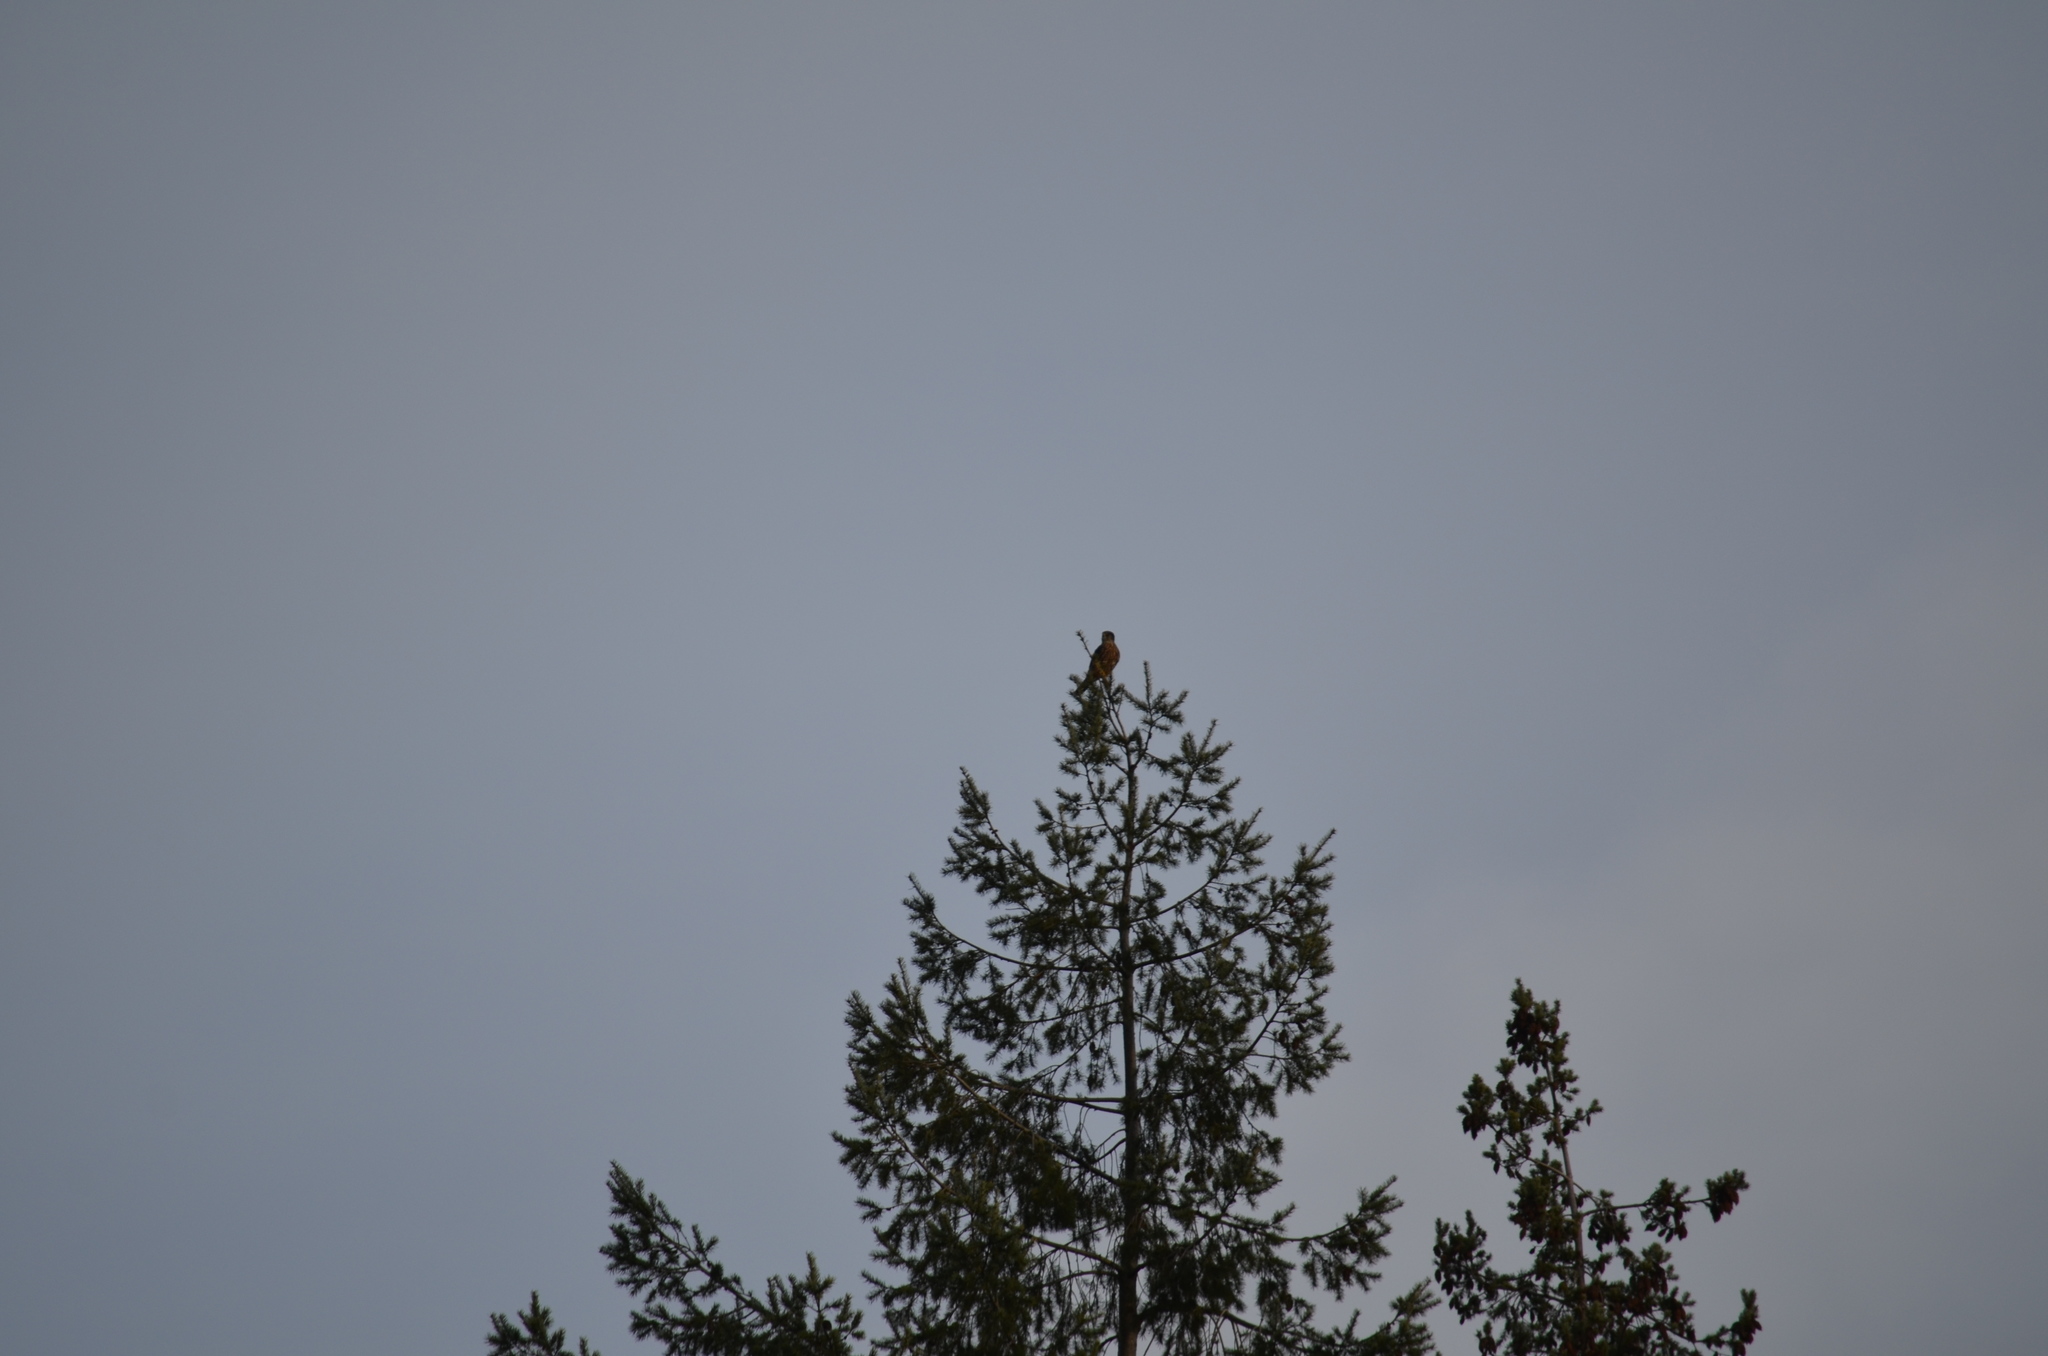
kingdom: Animalia
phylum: Chordata
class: Aves
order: Falconiformes
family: Falconidae
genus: Falco
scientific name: Falco columbarius
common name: Merlin
